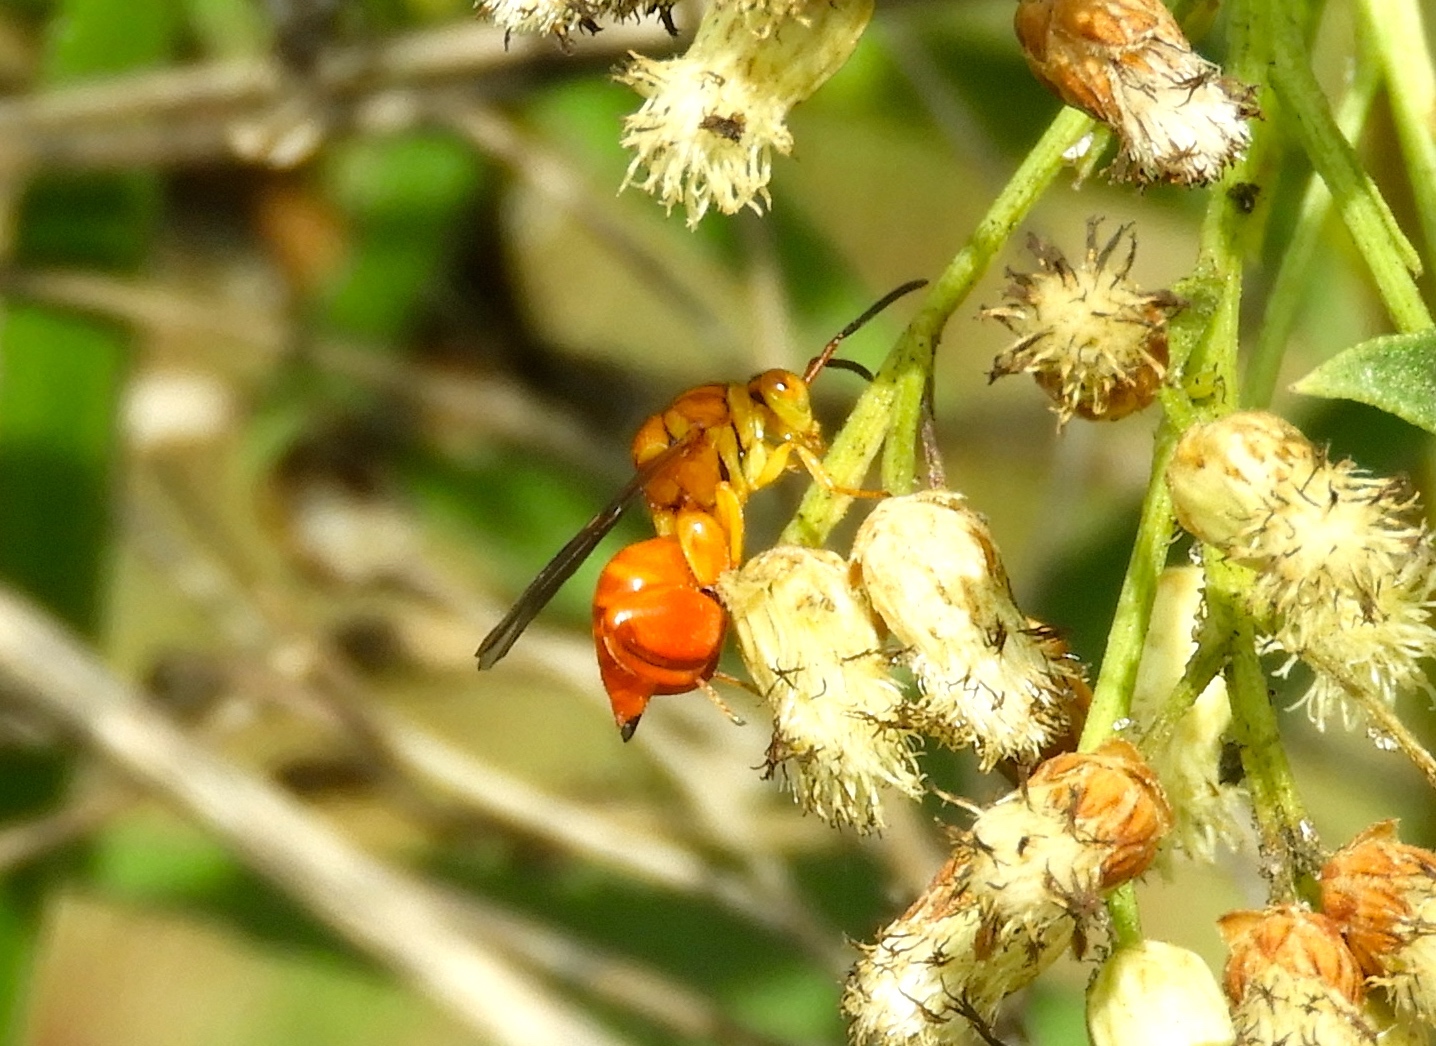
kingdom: Animalia
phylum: Arthropoda
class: Insecta
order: Hymenoptera
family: Chalcididae
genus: Conura
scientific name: Conura
